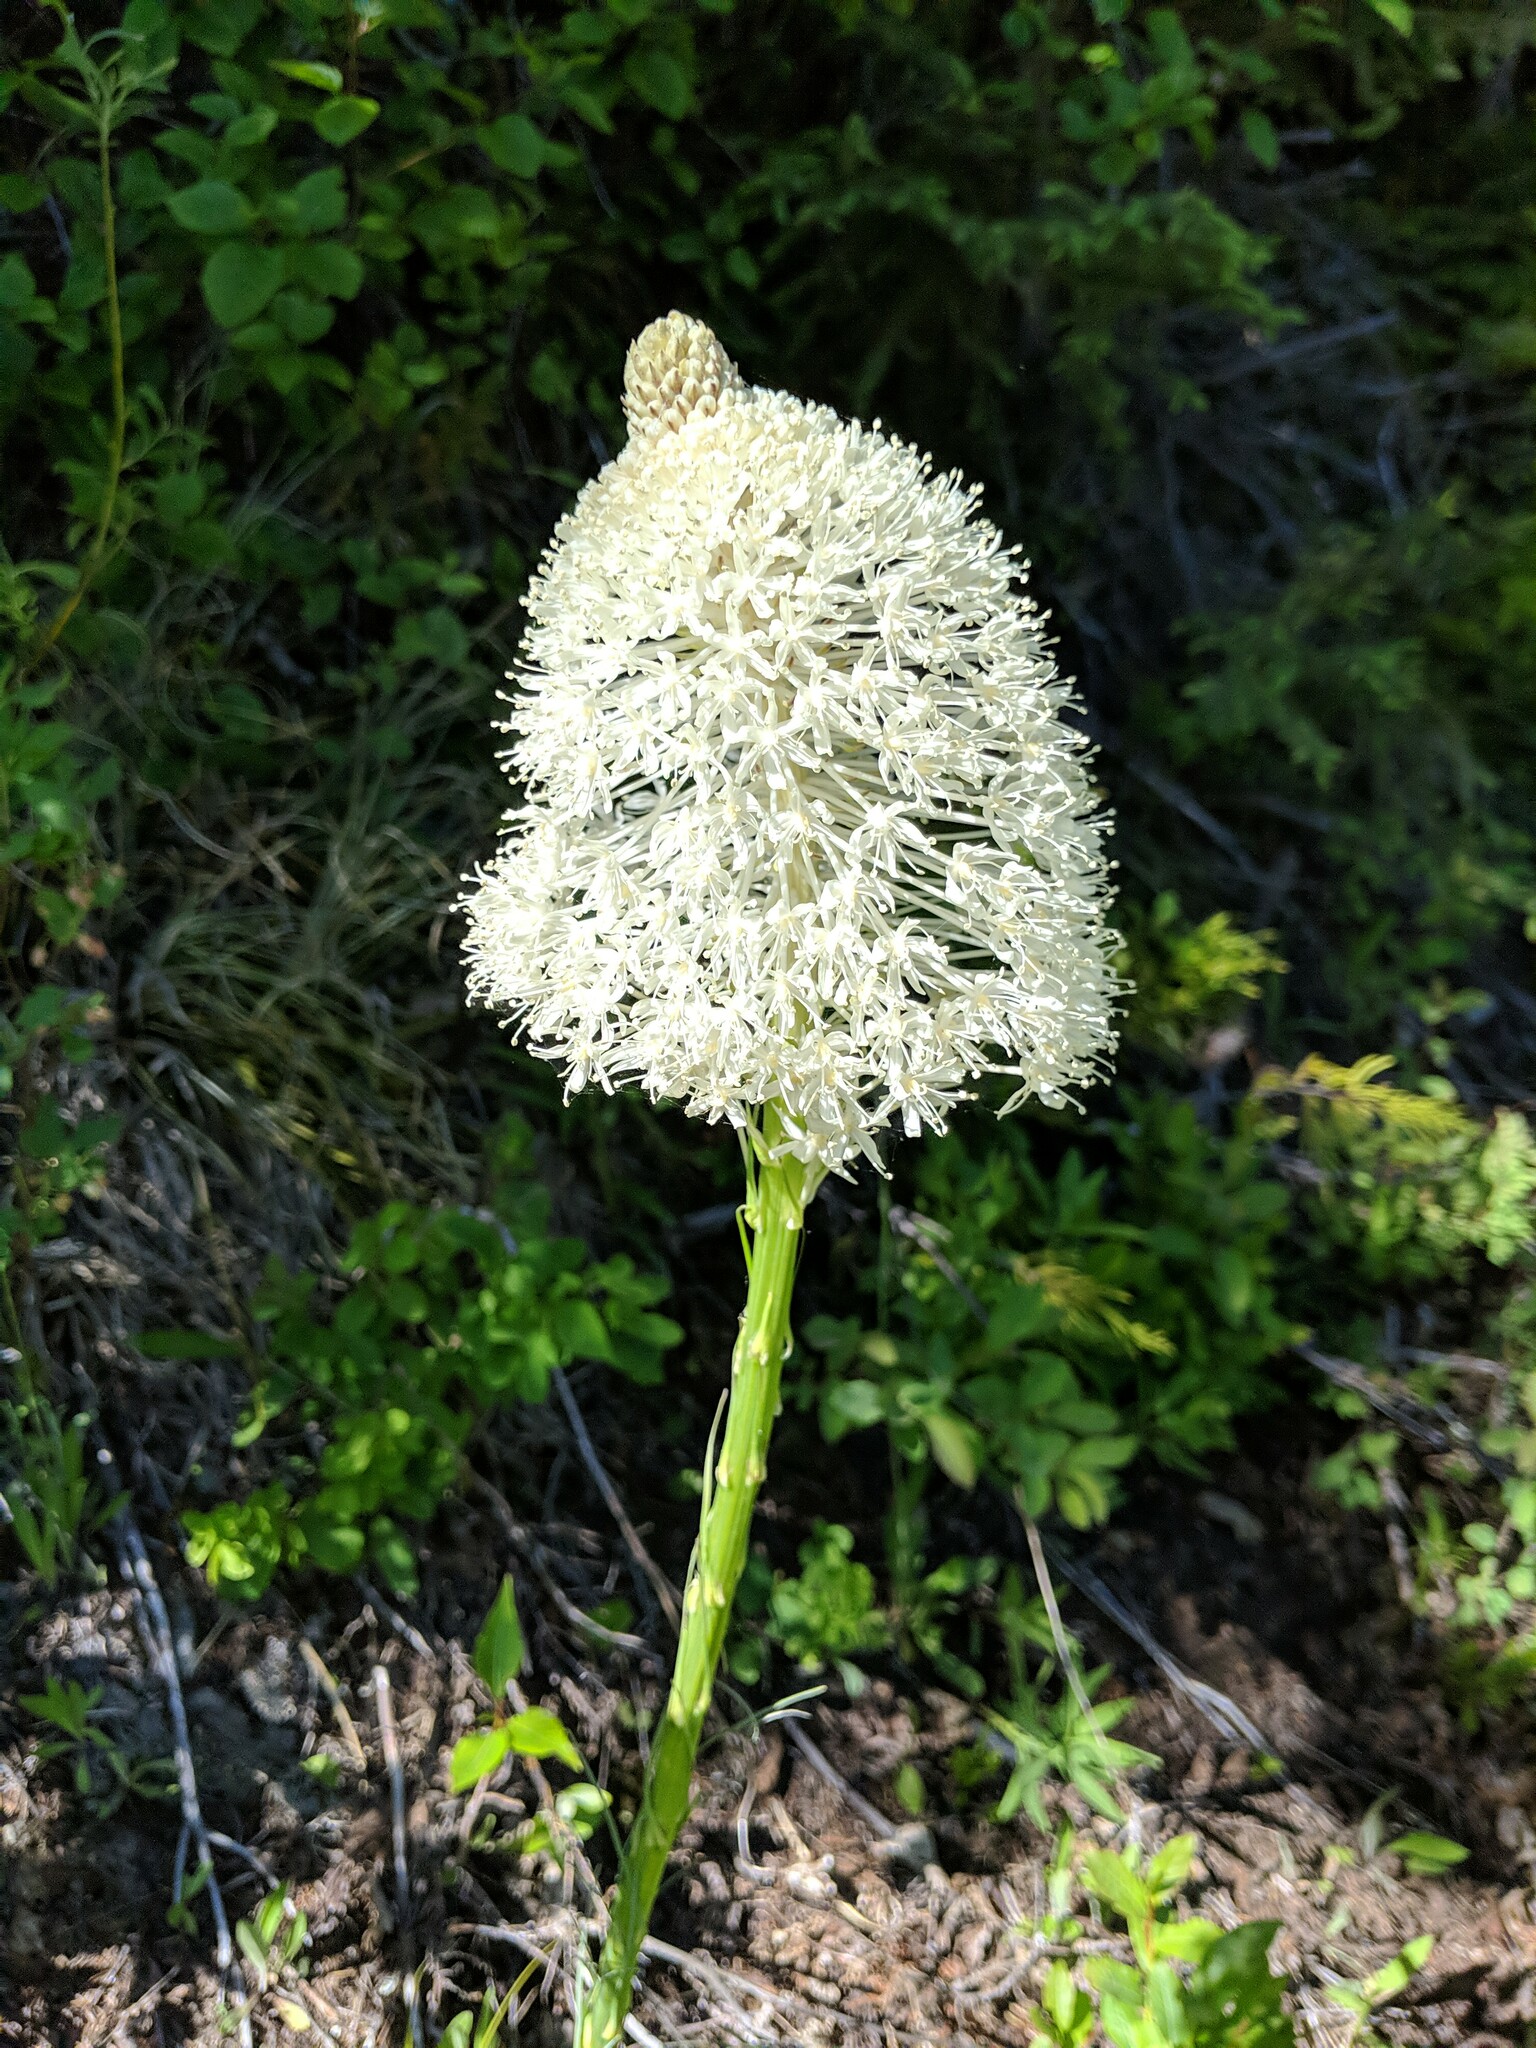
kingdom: Plantae
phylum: Tracheophyta
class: Liliopsida
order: Liliales
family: Melanthiaceae
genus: Xerophyllum
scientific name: Xerophyllum tenax
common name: Bear-grass
